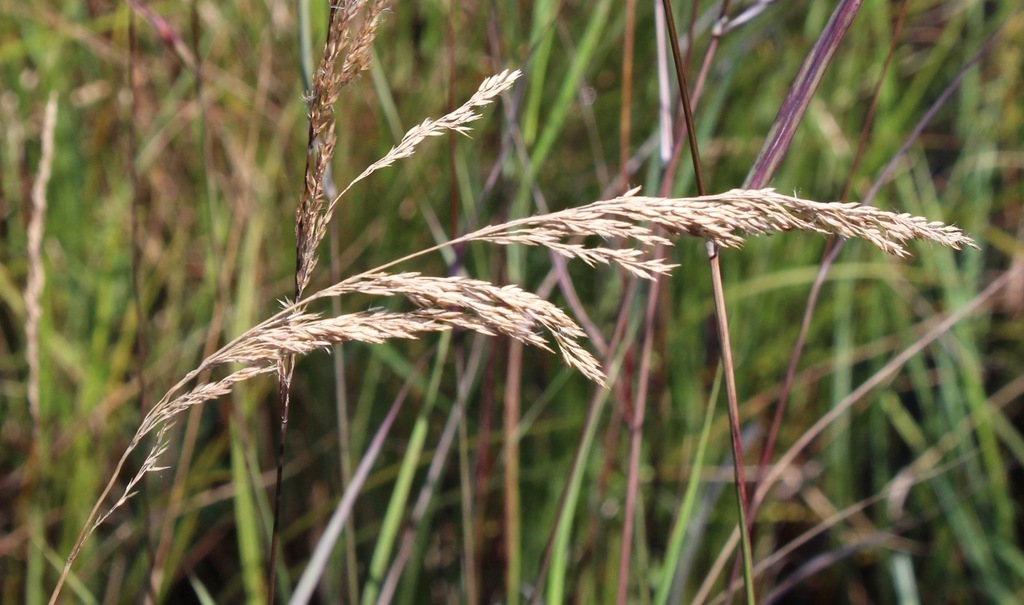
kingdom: Plantae
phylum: Tracheophyta
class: Liliopsida
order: Poales
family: Poaceae
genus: Calamagrostis
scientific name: Calamagrostis canadensis
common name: Canada bluejoint
